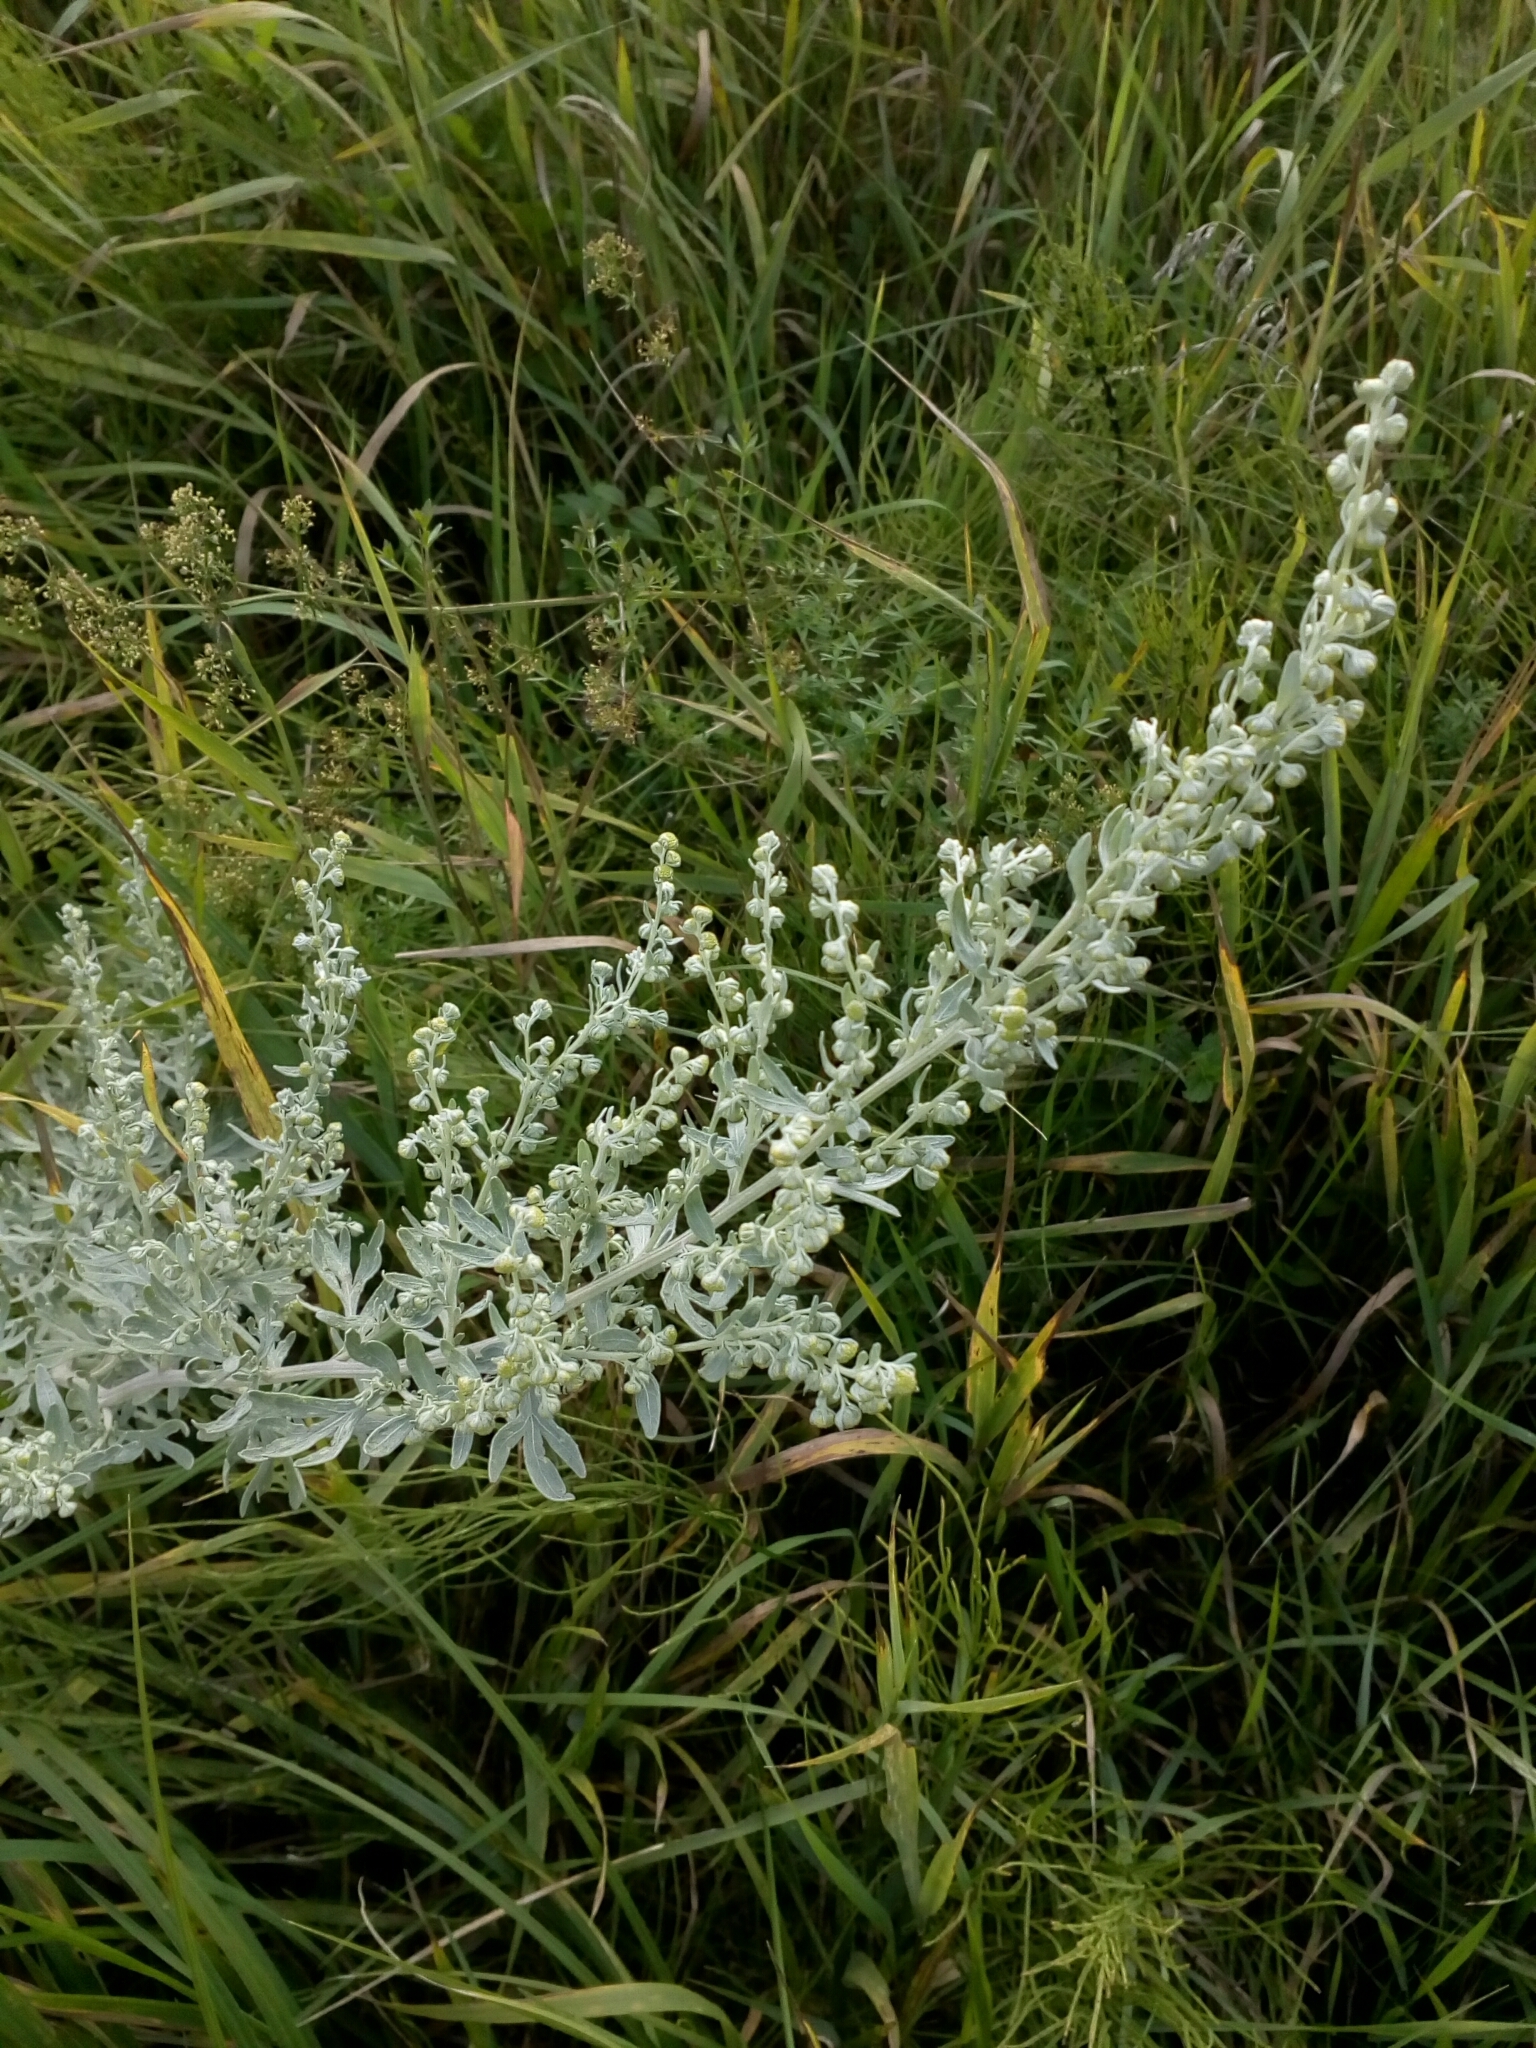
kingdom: Plantae
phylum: Tracheophyta
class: Magnoliopsida
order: Asterales
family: Asteraceae
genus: Artemisia
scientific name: Artemisia absinthium
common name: Wormwood
